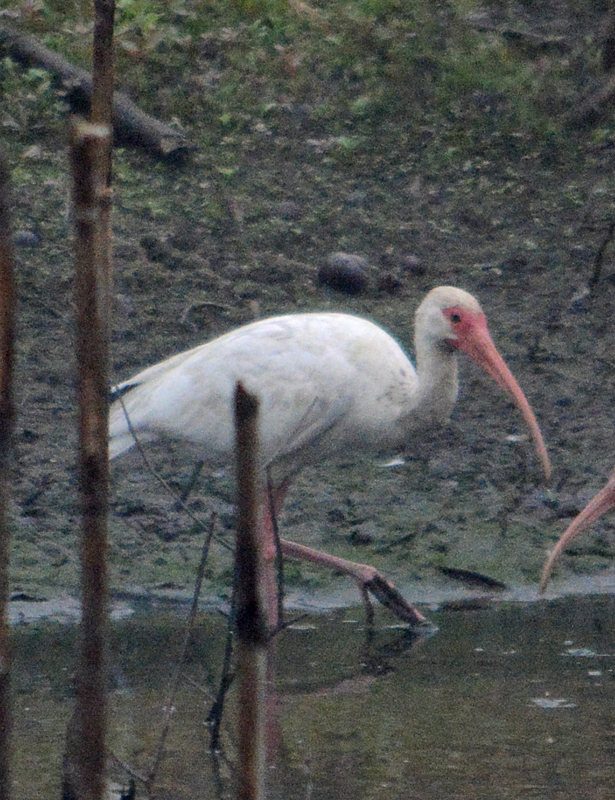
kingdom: Animalia
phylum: Chordata
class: Aves
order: Pelecaniformes
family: Threskiornithidae
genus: Eudocimus
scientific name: Eudocimus albus
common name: White ibis
